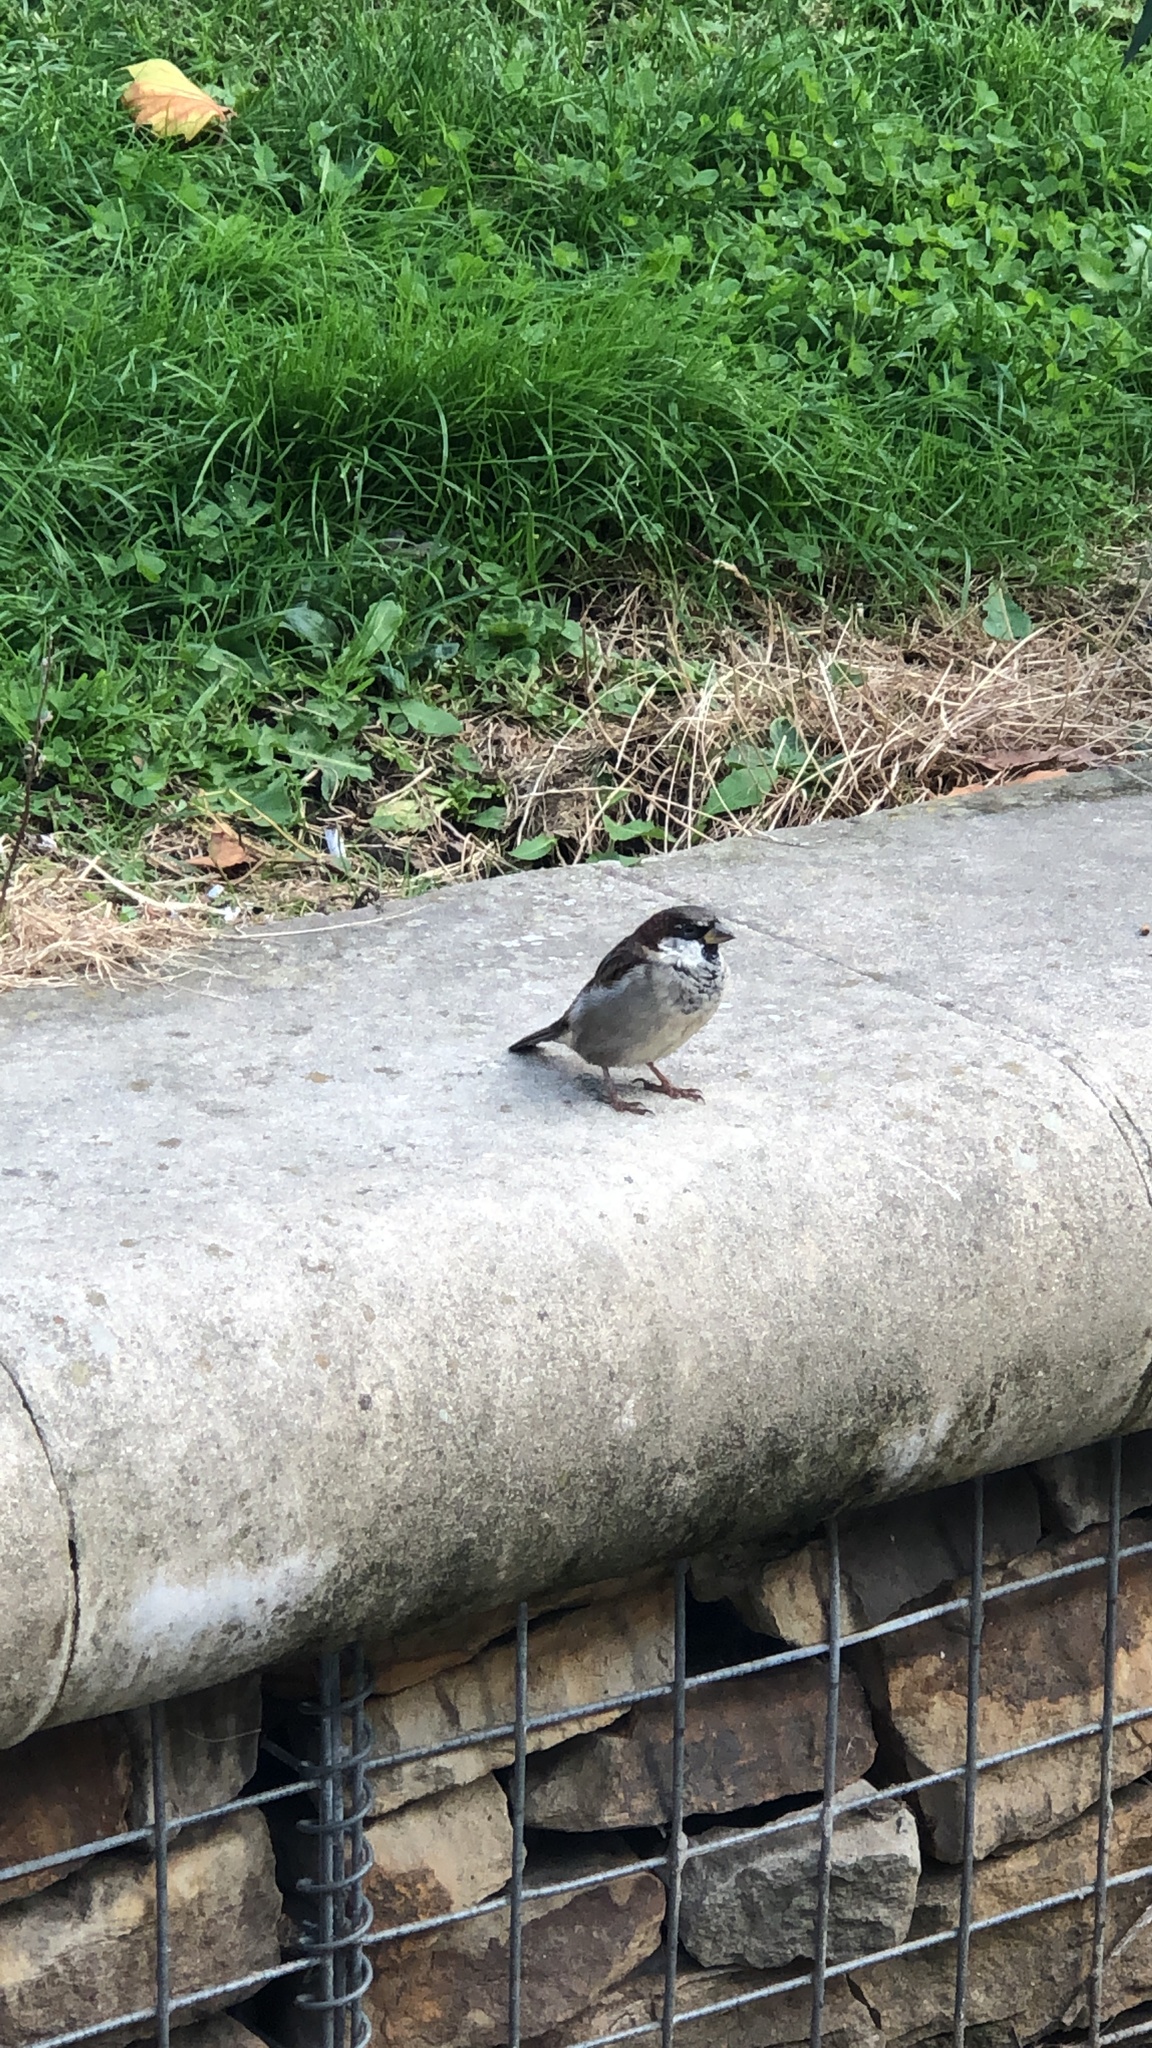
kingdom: Animalia
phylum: Chordata
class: Aves
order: Passeriformes
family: Passeridae
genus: Passer
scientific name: Passer domesticus
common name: House sparrow
